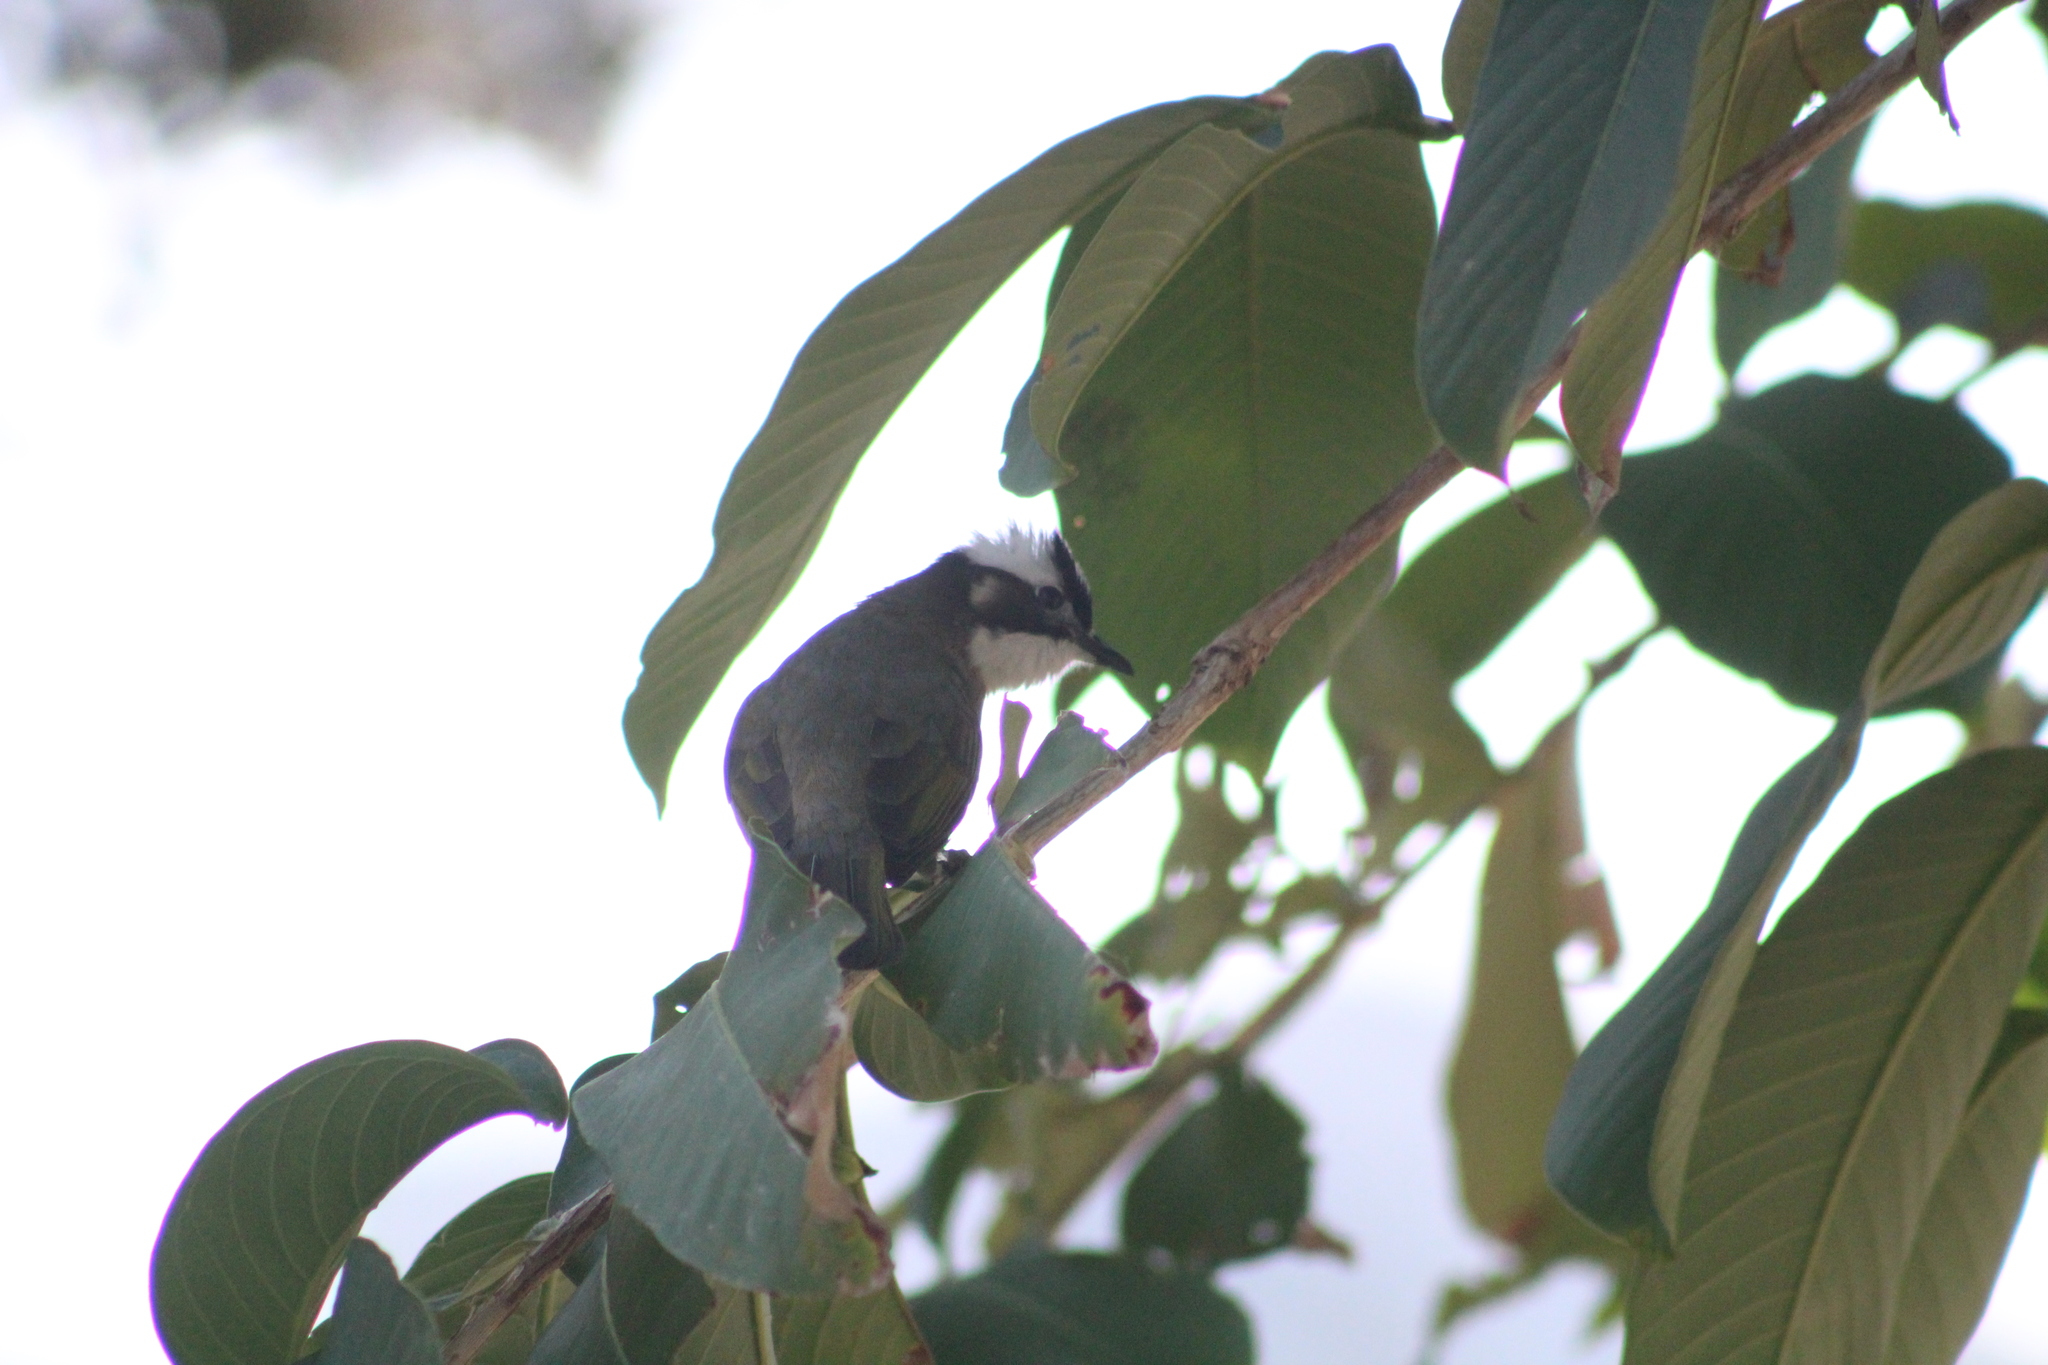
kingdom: Animalia
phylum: Chordata
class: Aves
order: Passeriformes
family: Pycnonotidae
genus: Pycnonotus
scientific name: Pycnonotus sinensis
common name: Light-vented bulbul
